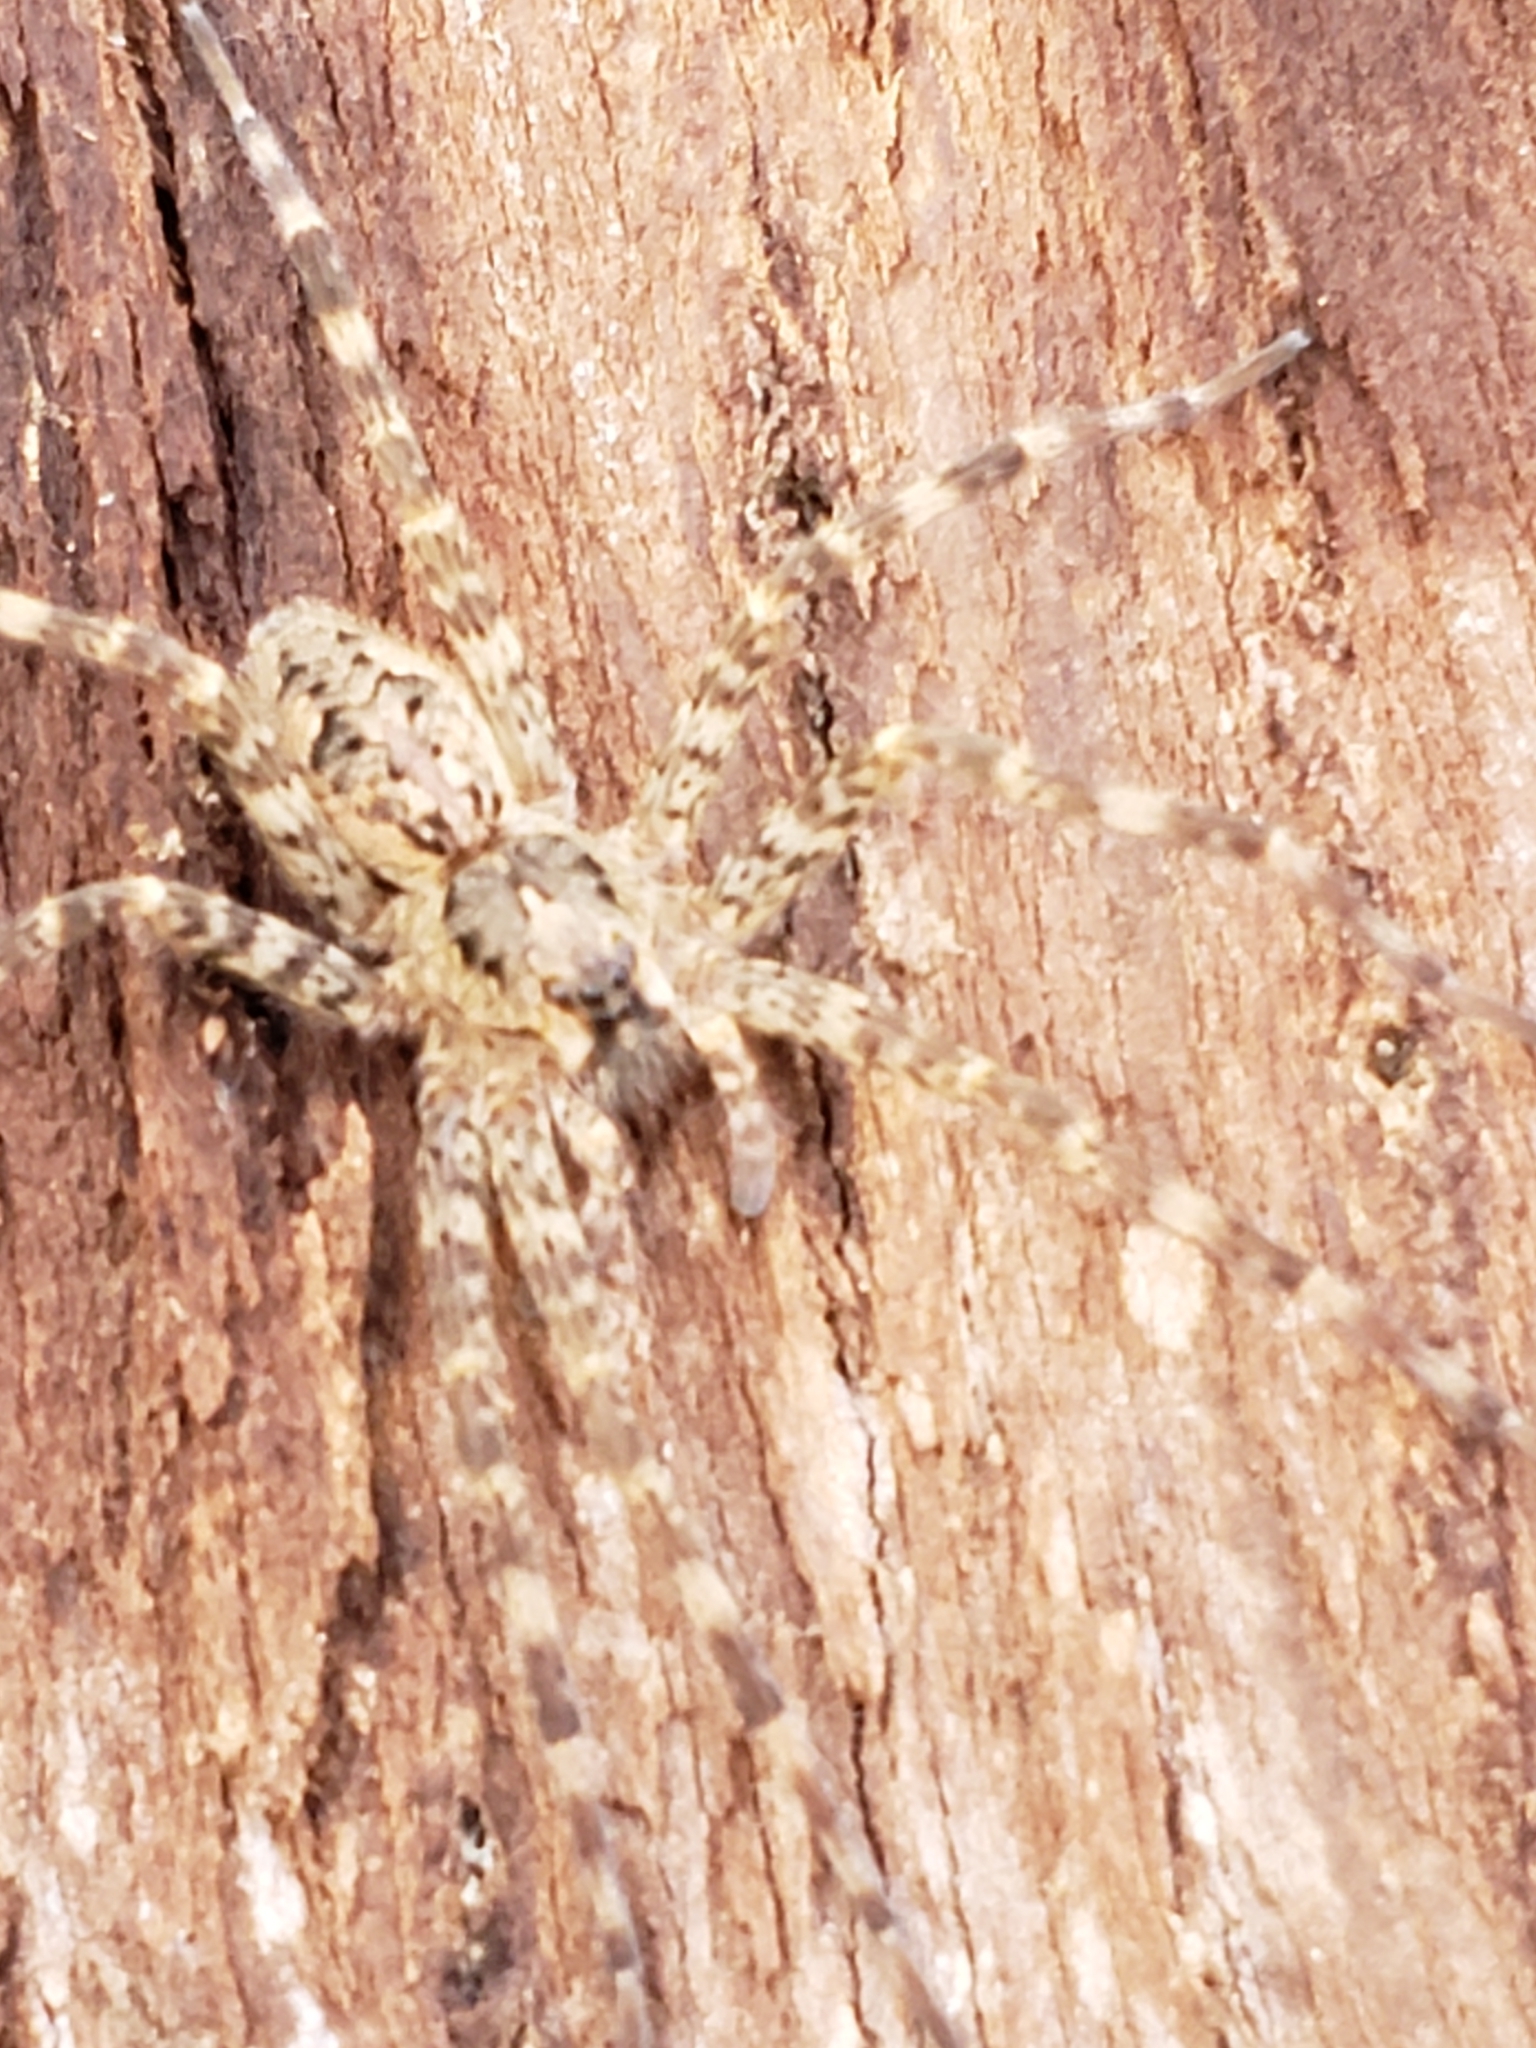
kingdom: Animalia
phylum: Arthropoda
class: Arachnida
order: Araneae
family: Pisauridae
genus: Dolomedes
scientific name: Dolomedes tenebrosus
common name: Dark fishing spider
